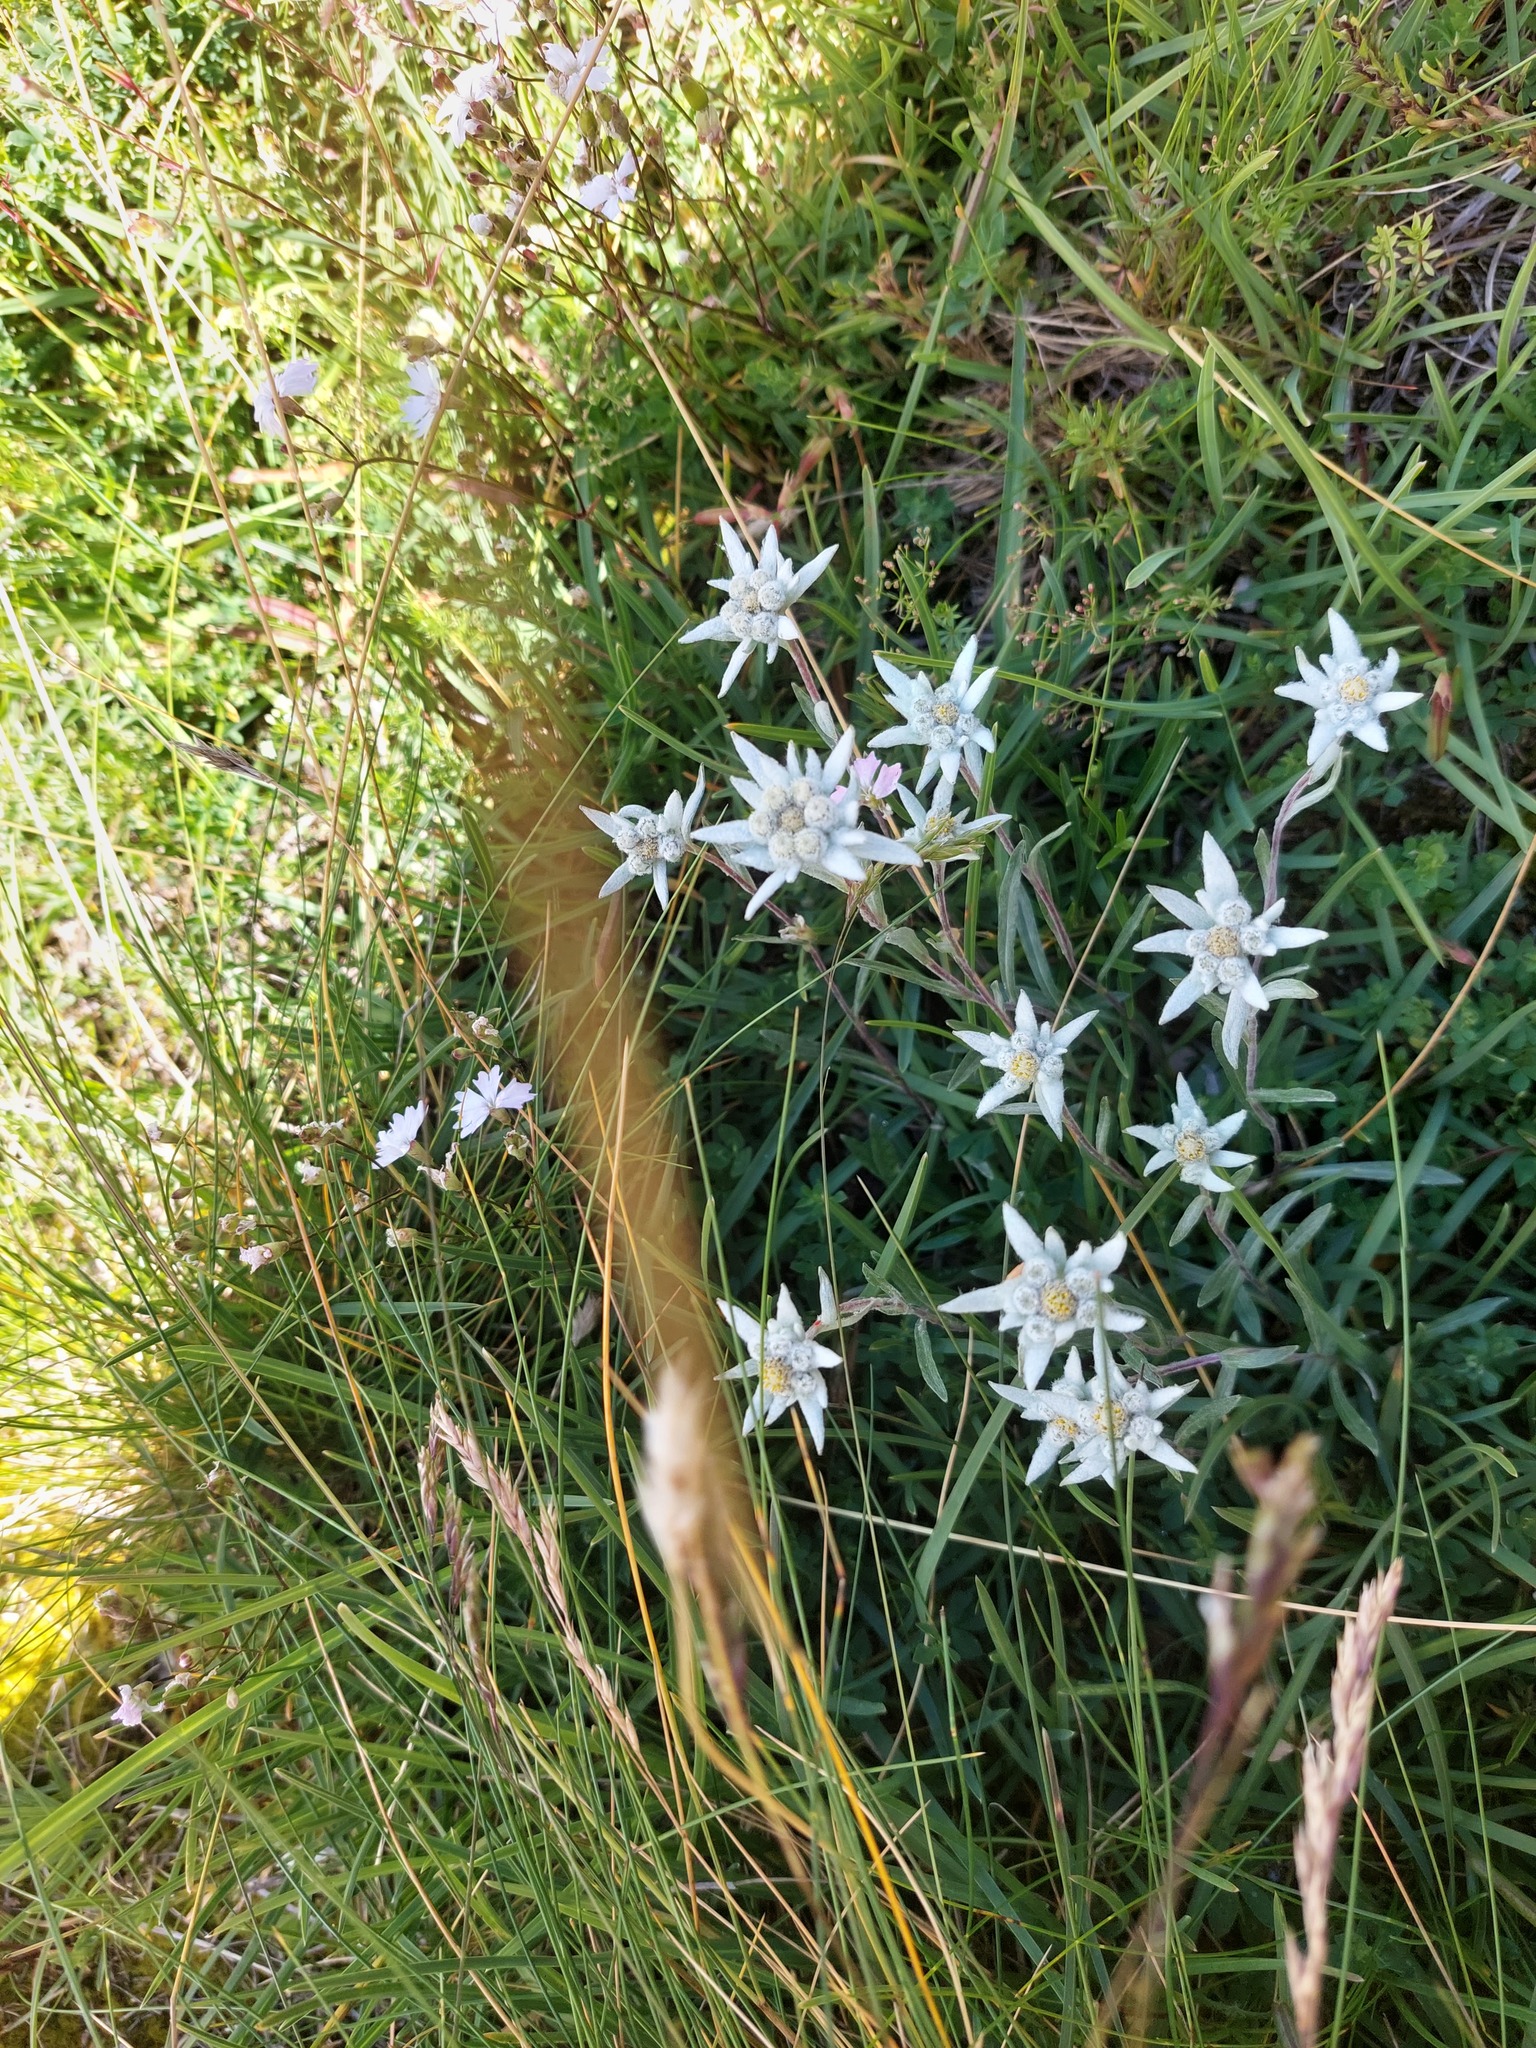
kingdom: Plantae
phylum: Tracheophyta
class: Magnoliopsida
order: Asterales
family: Asteraceae
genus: Leontopodium
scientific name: Leontopodium nivale
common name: Edelweiss
